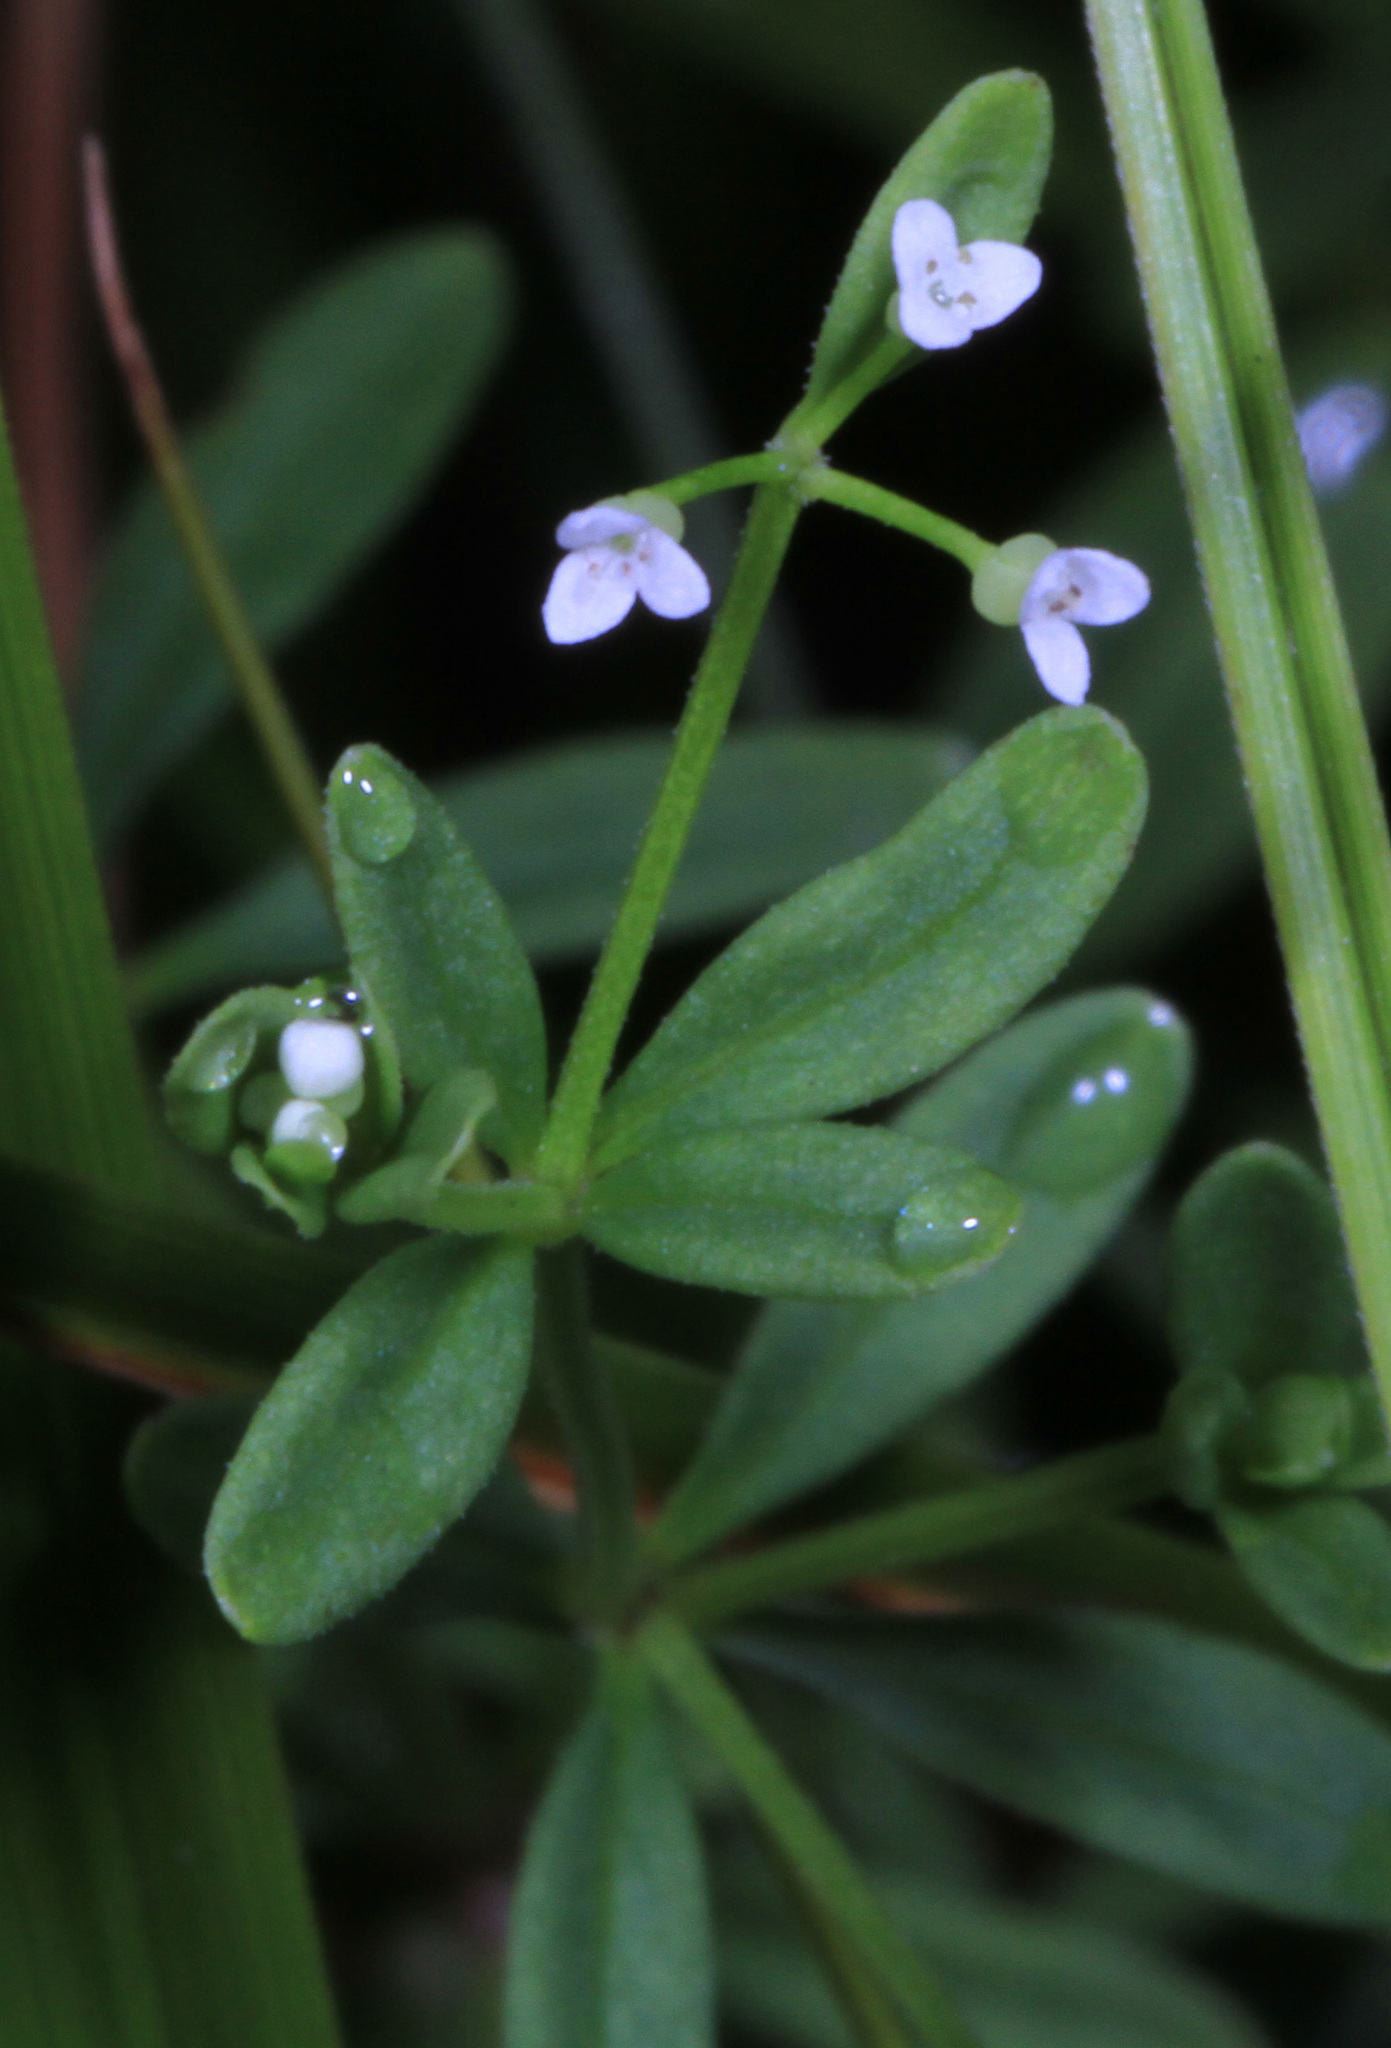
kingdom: Plantae
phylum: Tracheophyta
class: Magnoliopsida
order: Gentianales
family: Rubiaceae
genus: Galium
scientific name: Galium tinctorium
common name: Bedstraw
